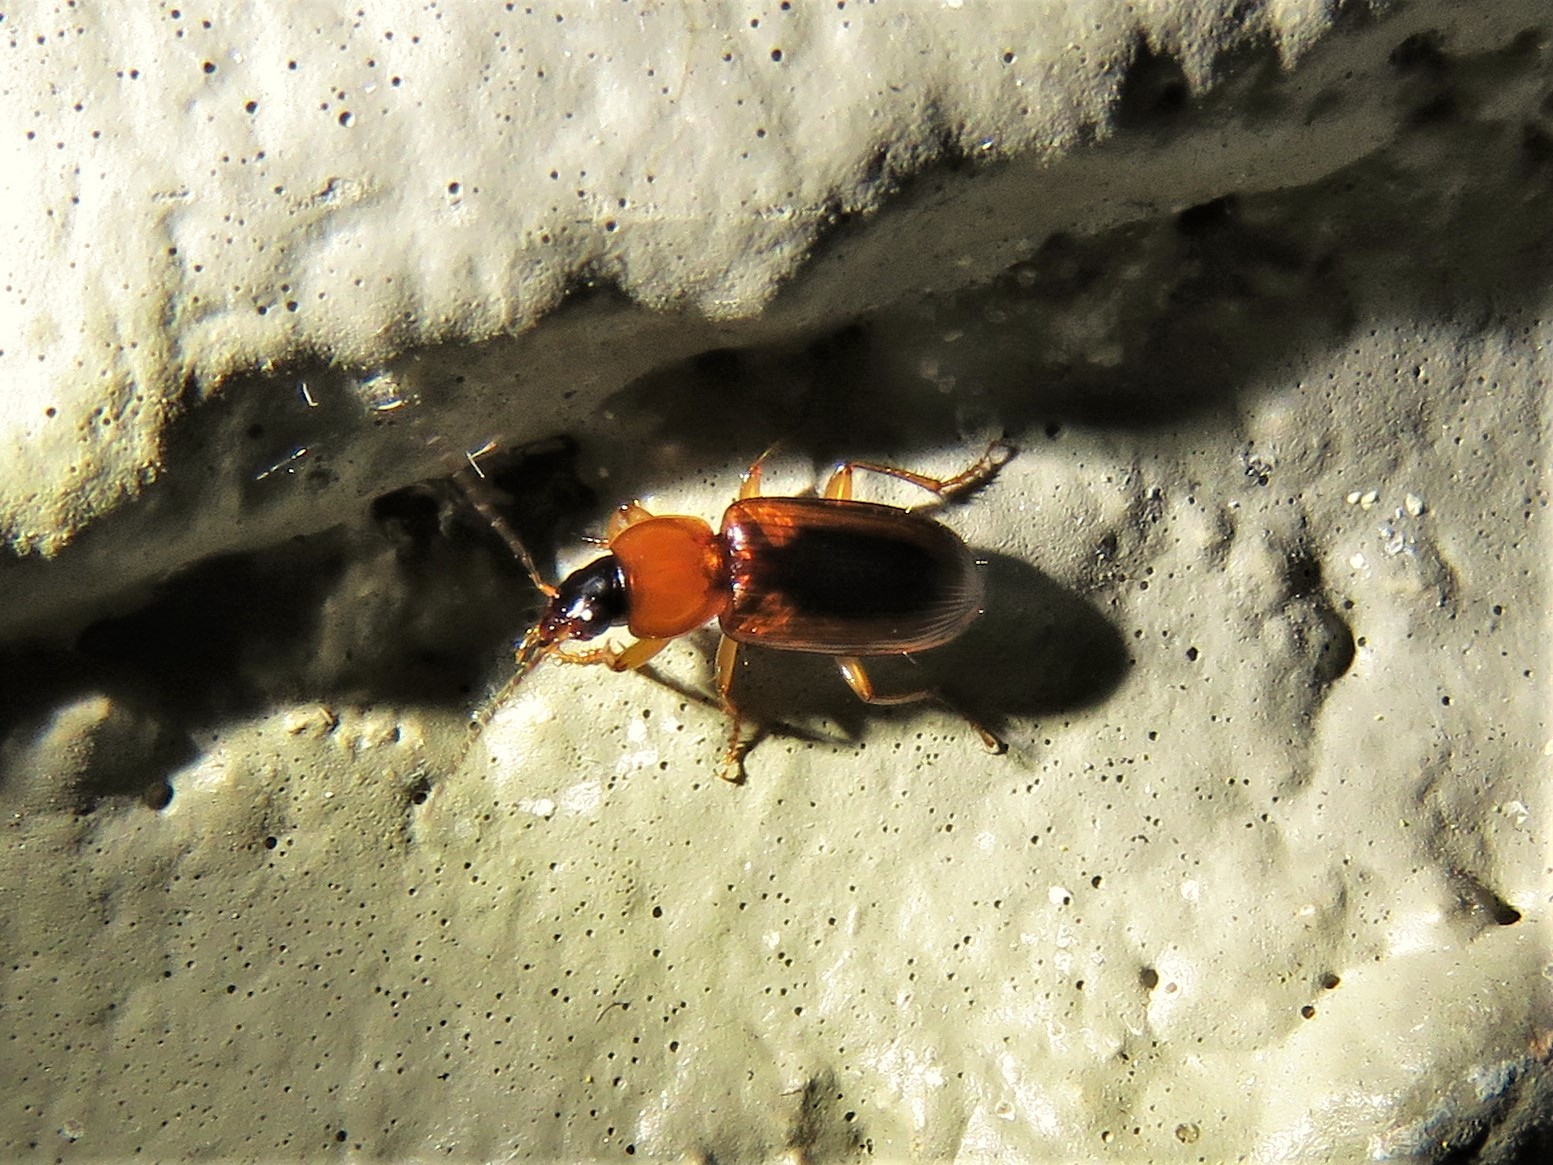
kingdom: Animalia
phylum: Arthropoda
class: Insecta
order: Coleoptera
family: Carabidae
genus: Stenolophus
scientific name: Stenolophus dissimilis
